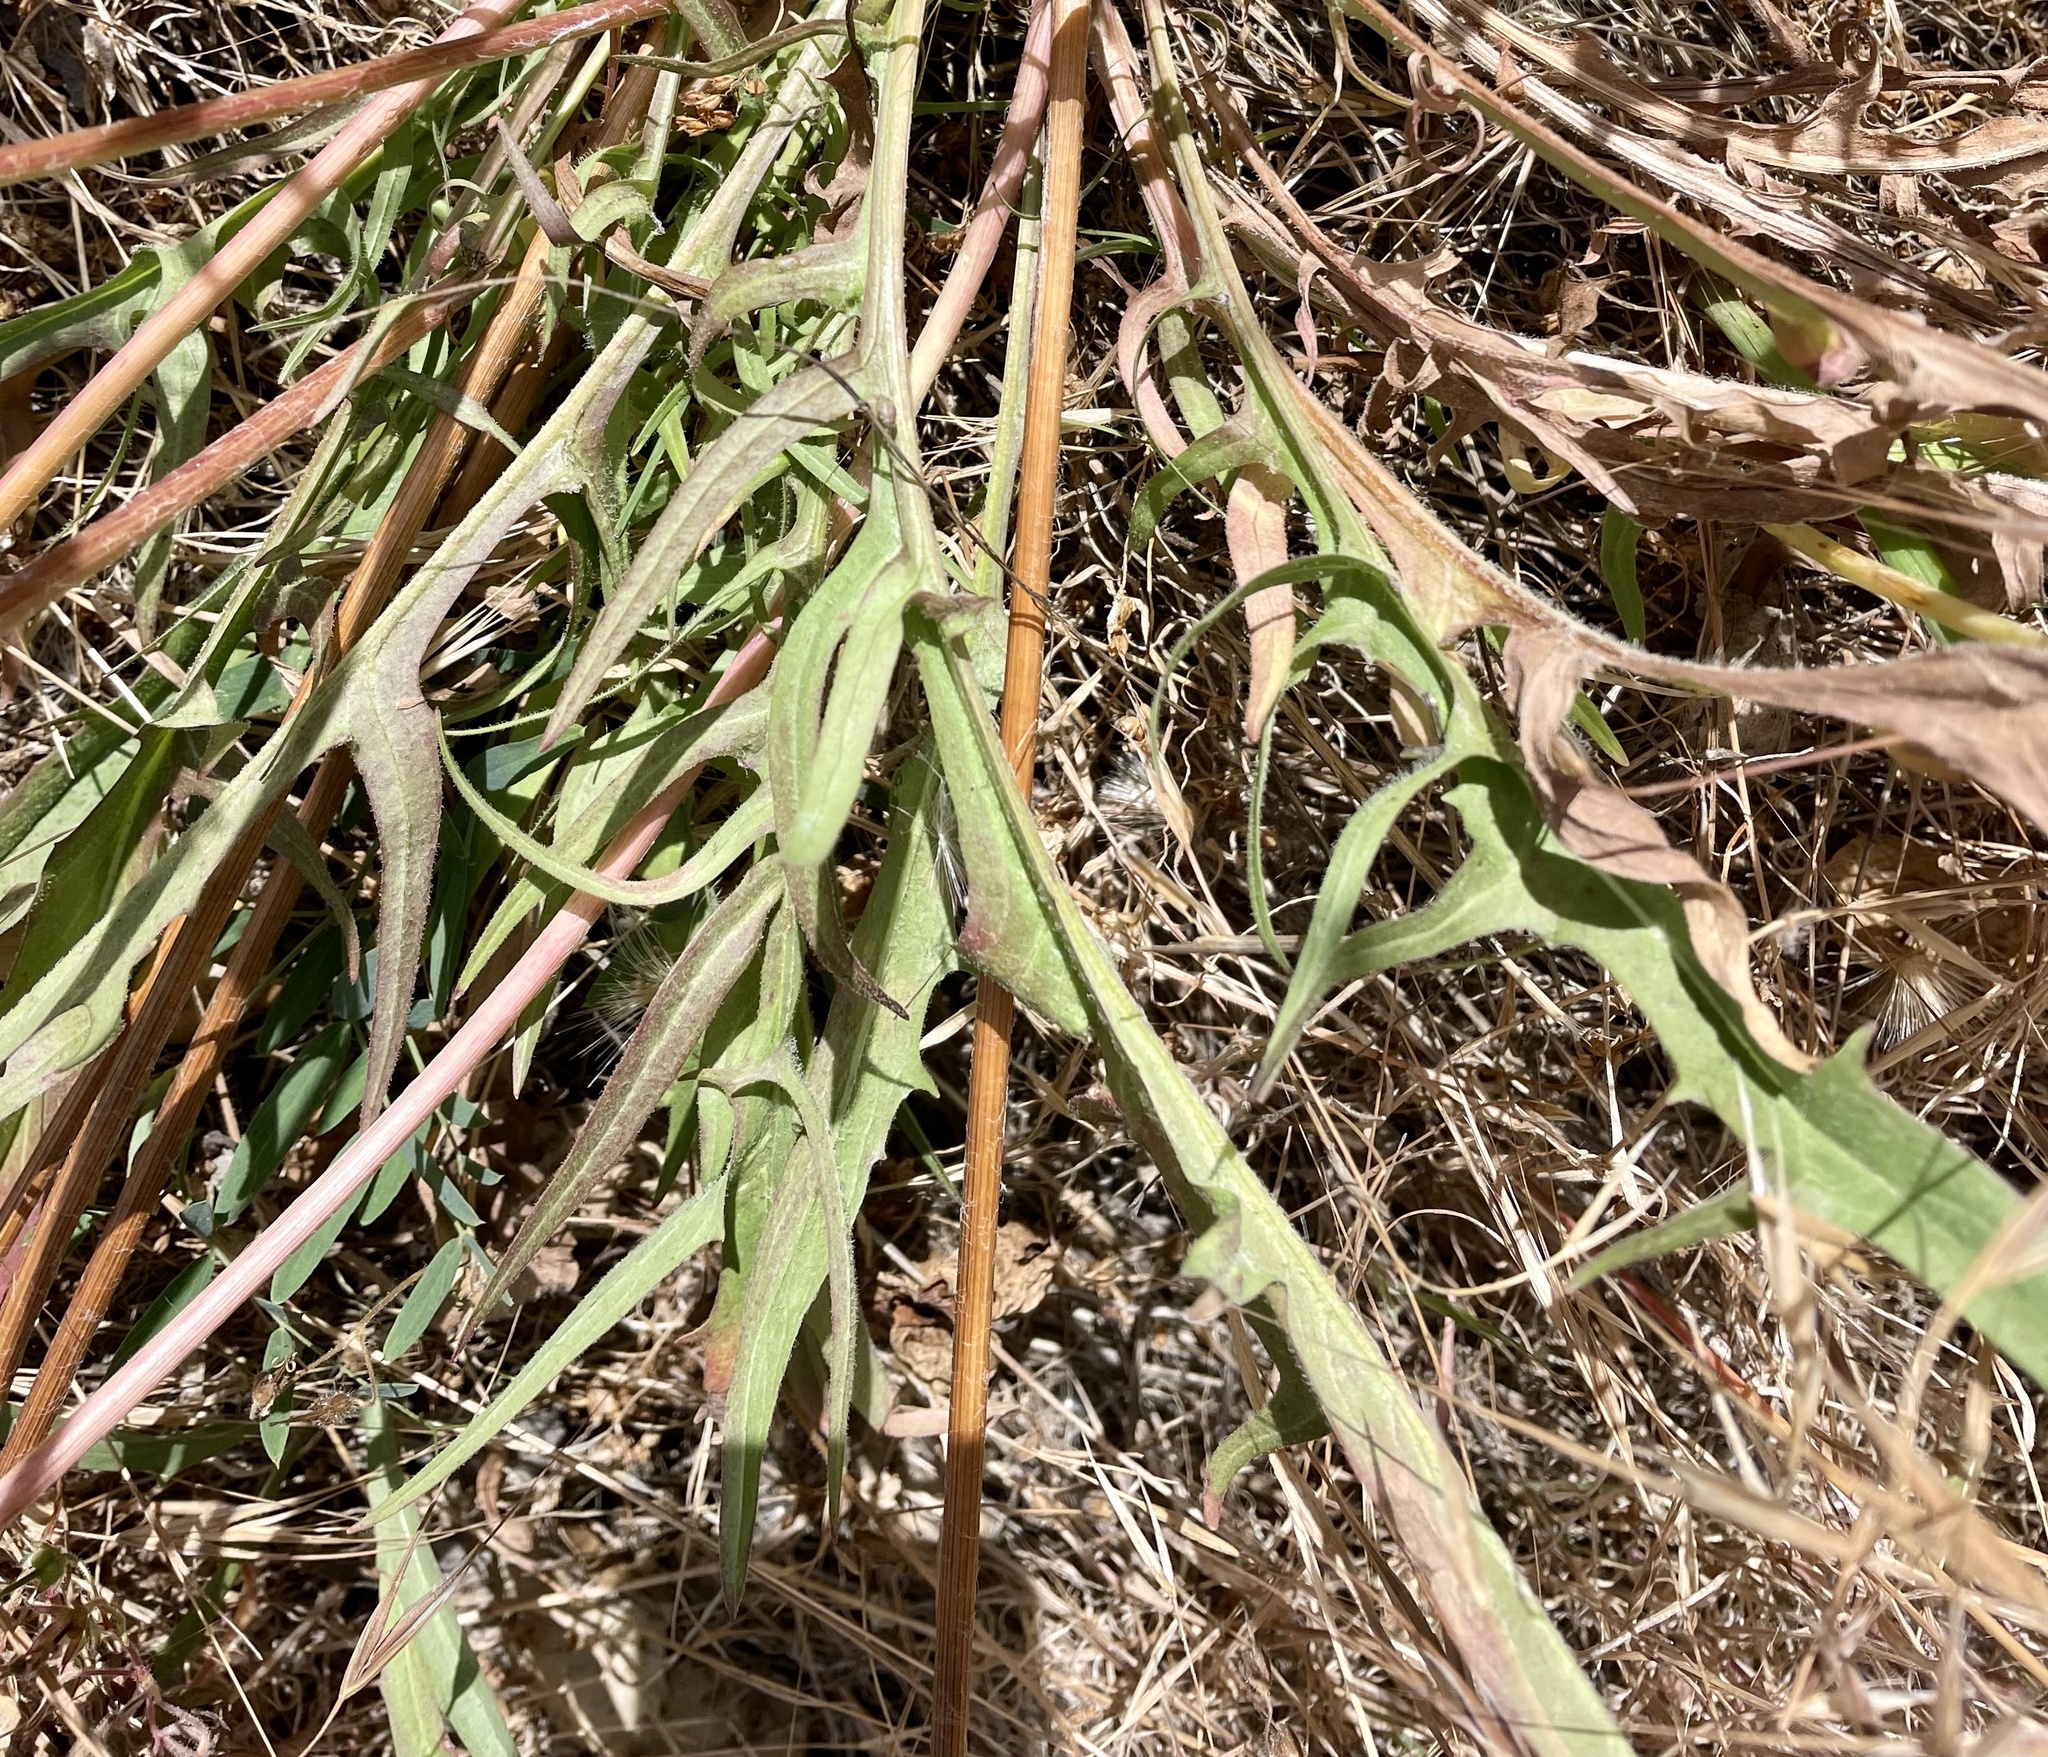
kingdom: Plantae
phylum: Tracheophyta
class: Magnoliopsida
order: Asterales
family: Asteraceae
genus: Agoseris
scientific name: Agoseris grandiflora
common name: Grassland agoseris
